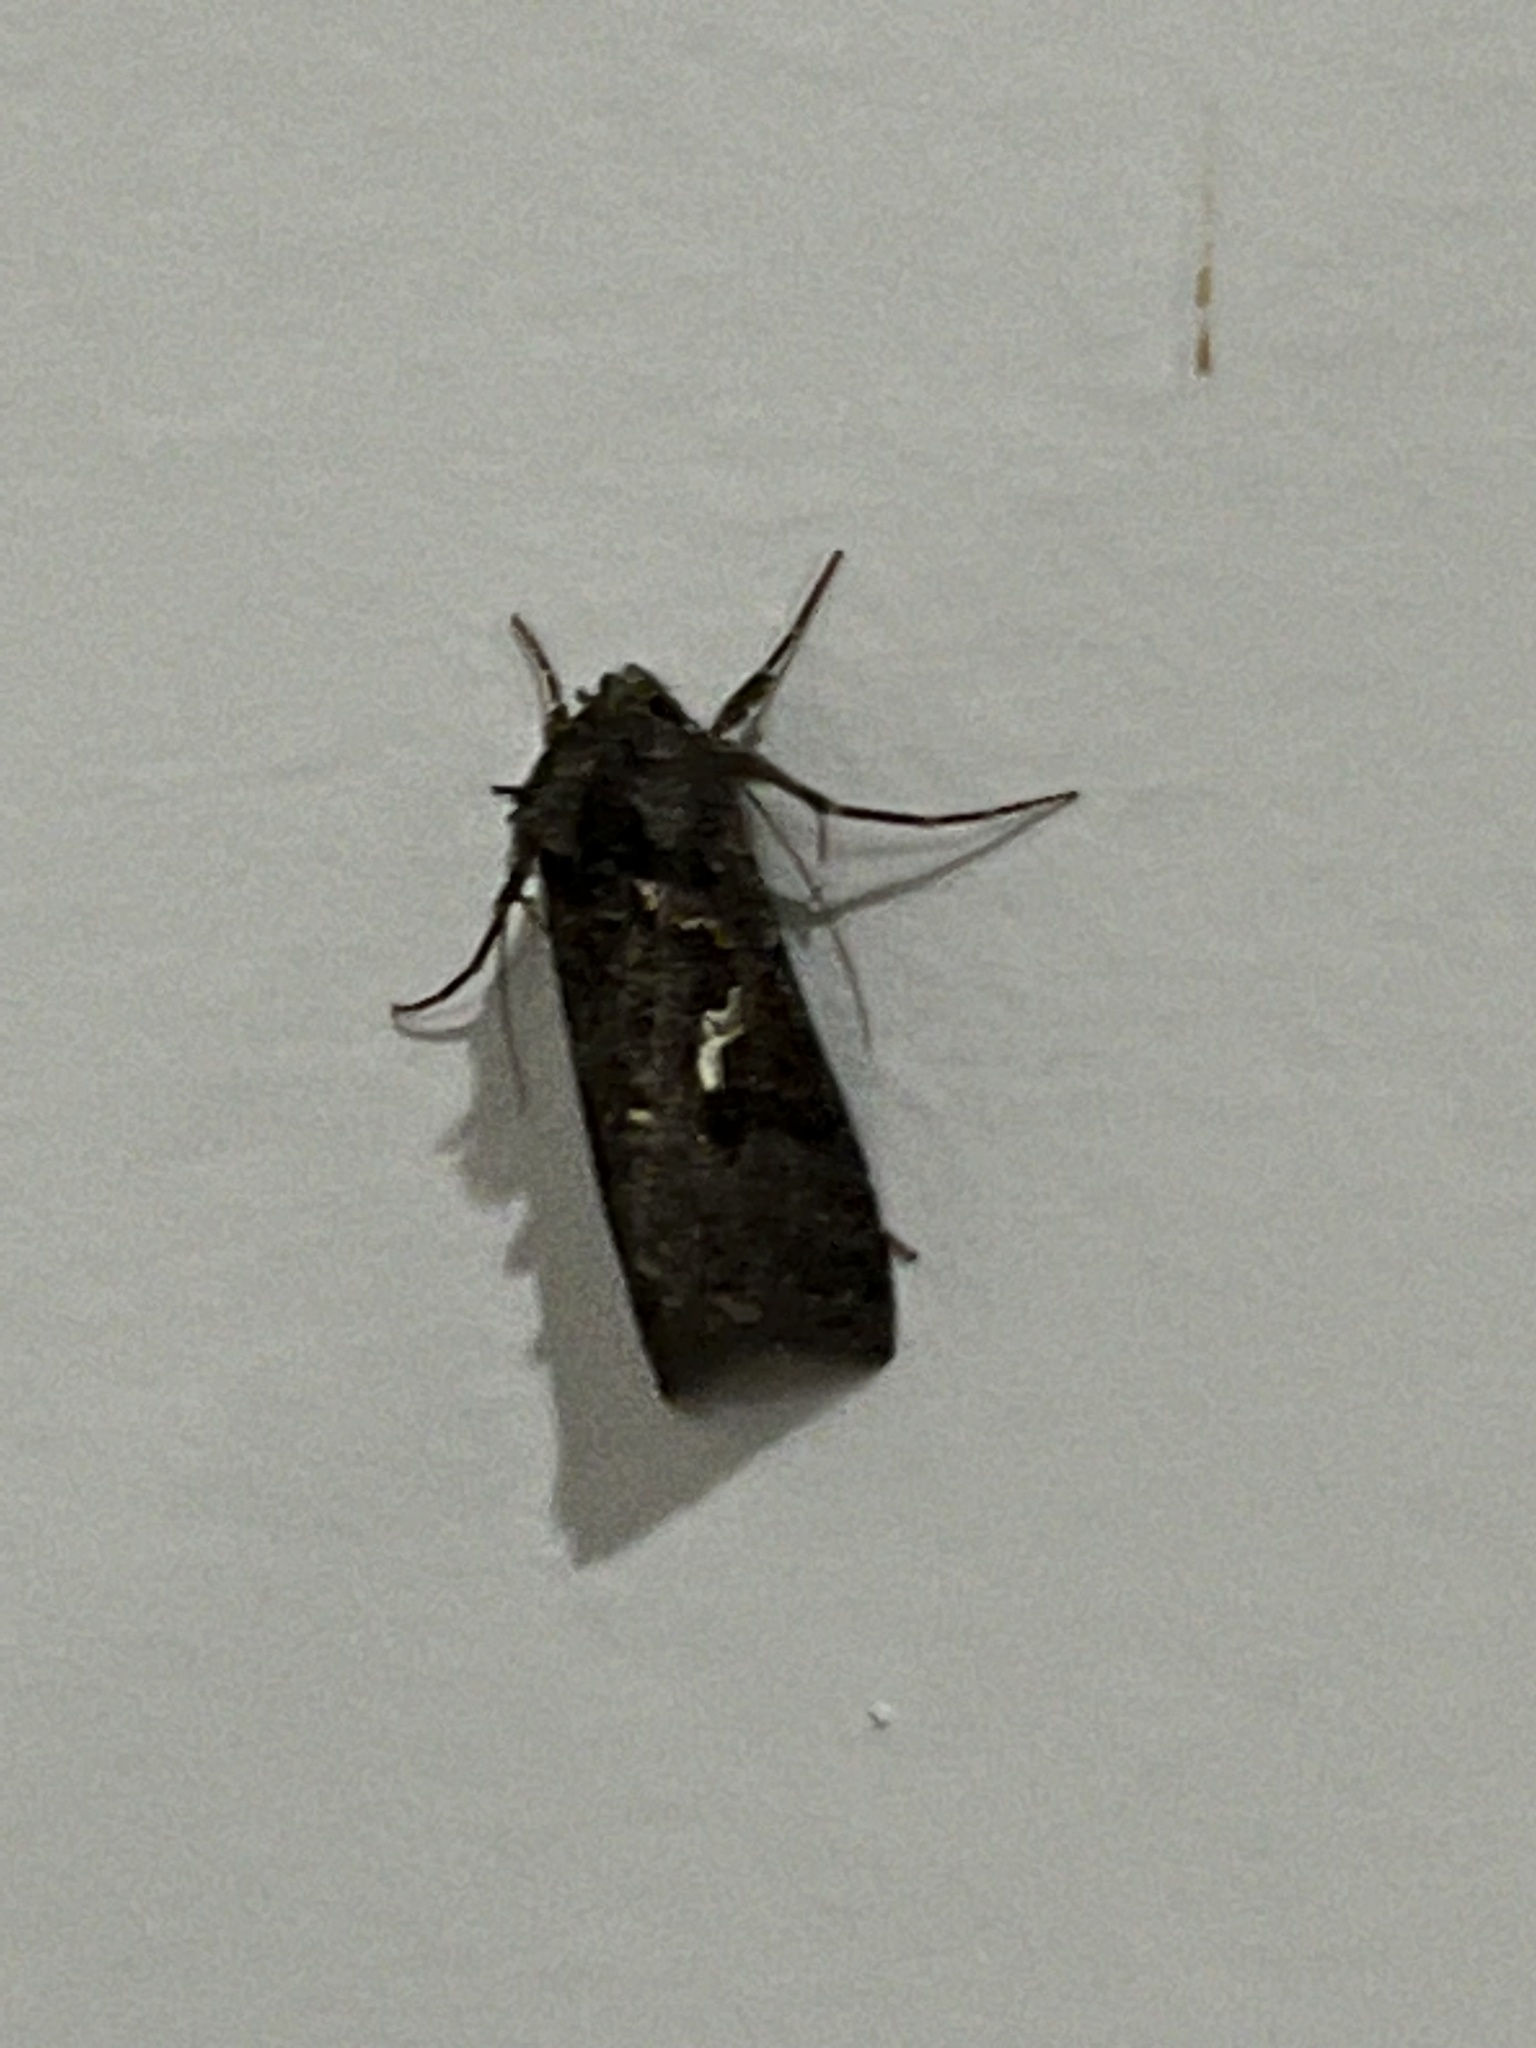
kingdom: Animalia
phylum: Arthropoda
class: Insecta
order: Lepidoptera
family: Noctuidae
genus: Ctenoplusia
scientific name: Ctenoplusia limbirena
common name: Scar bank gem
